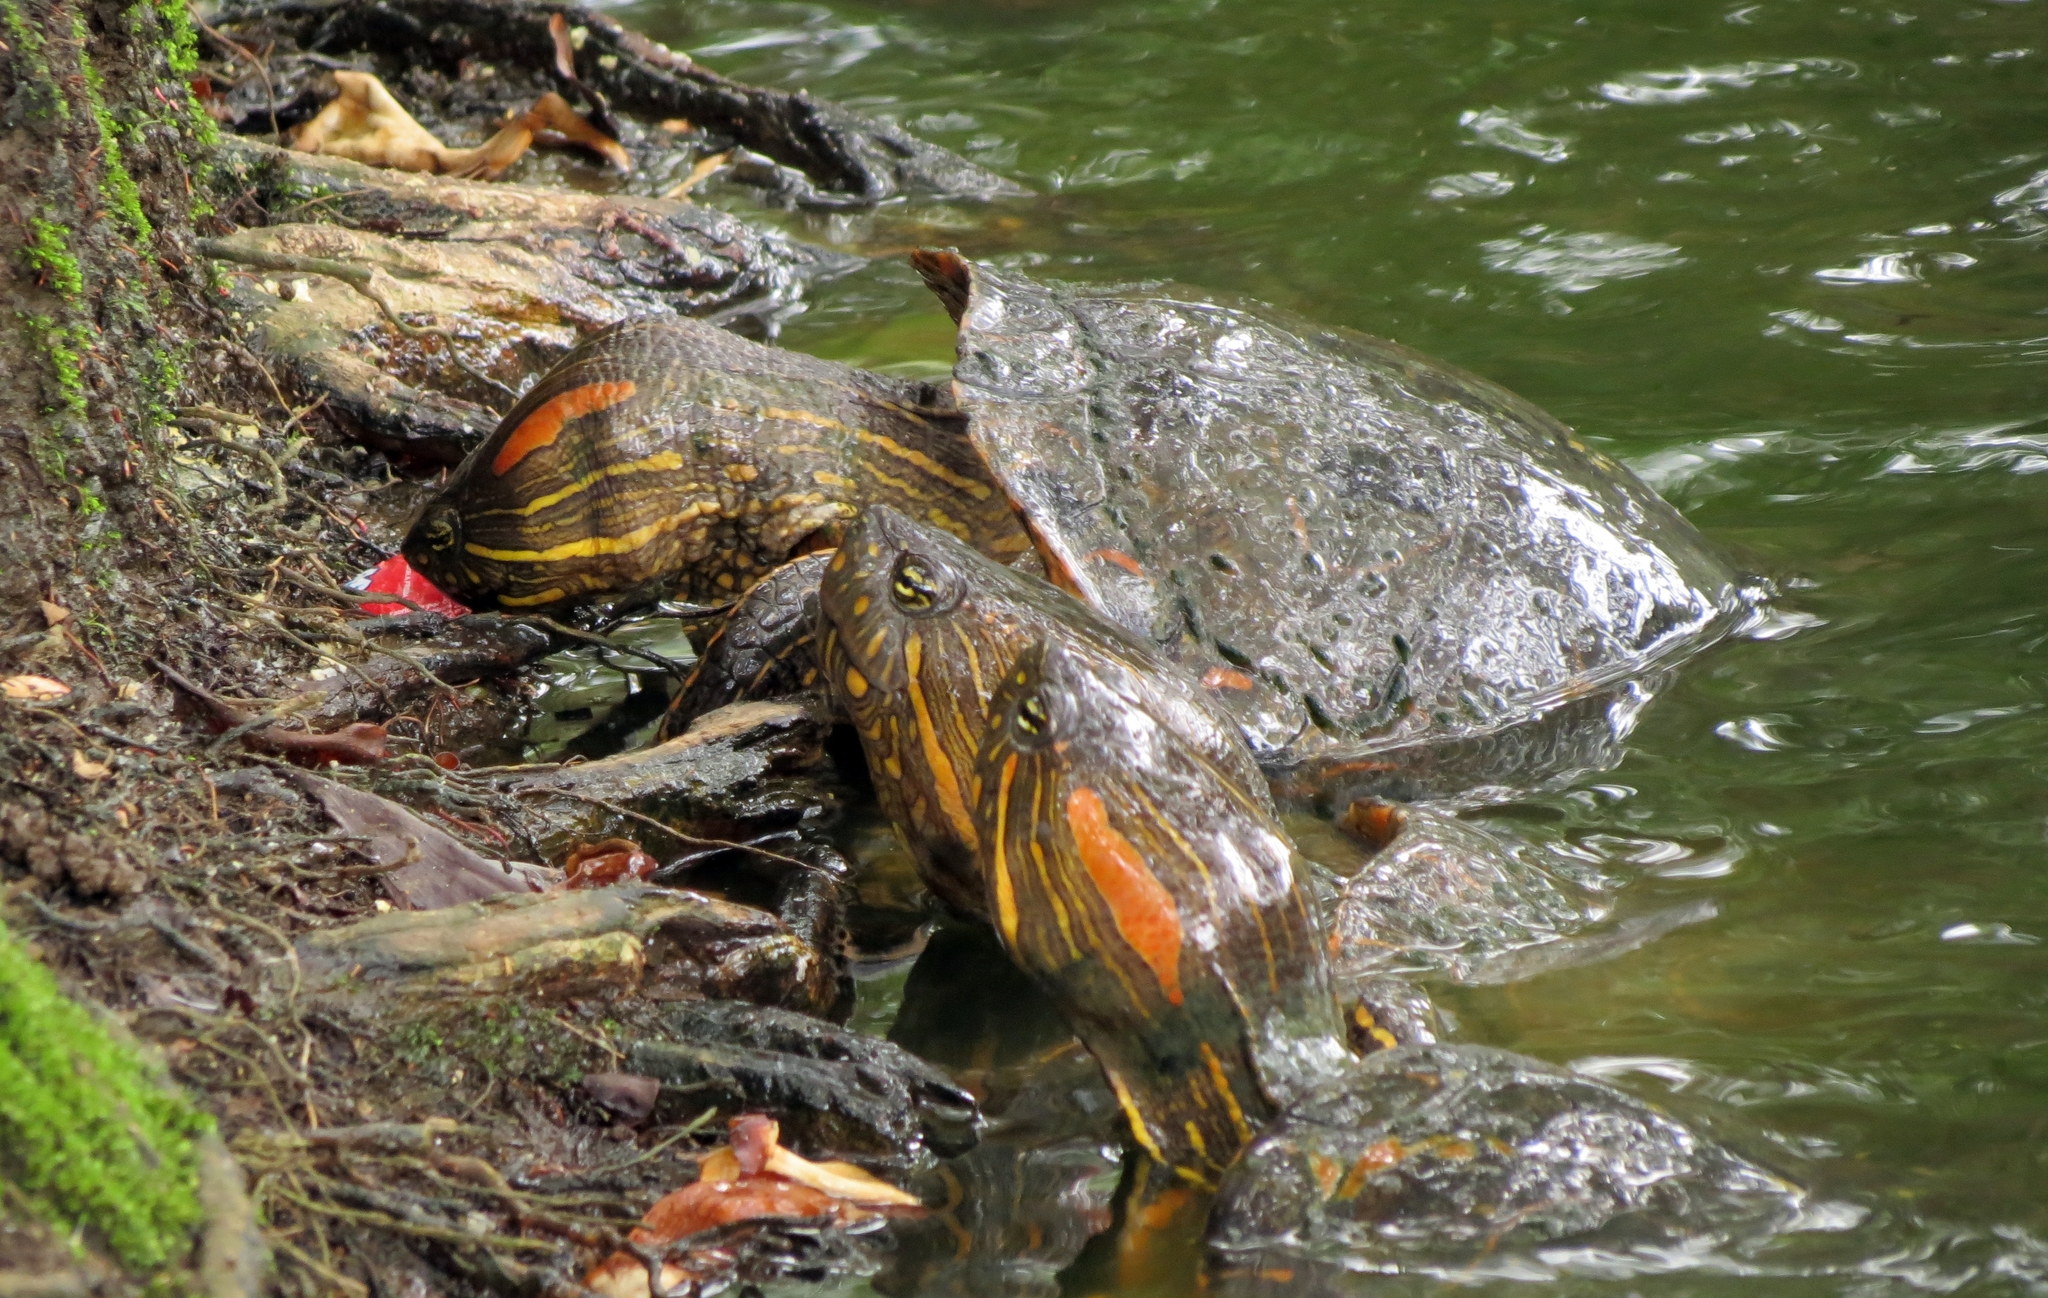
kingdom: Animalia
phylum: Chordata
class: Testudines
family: Emydidae
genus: Trachemys
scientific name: Trachemys callirostris
